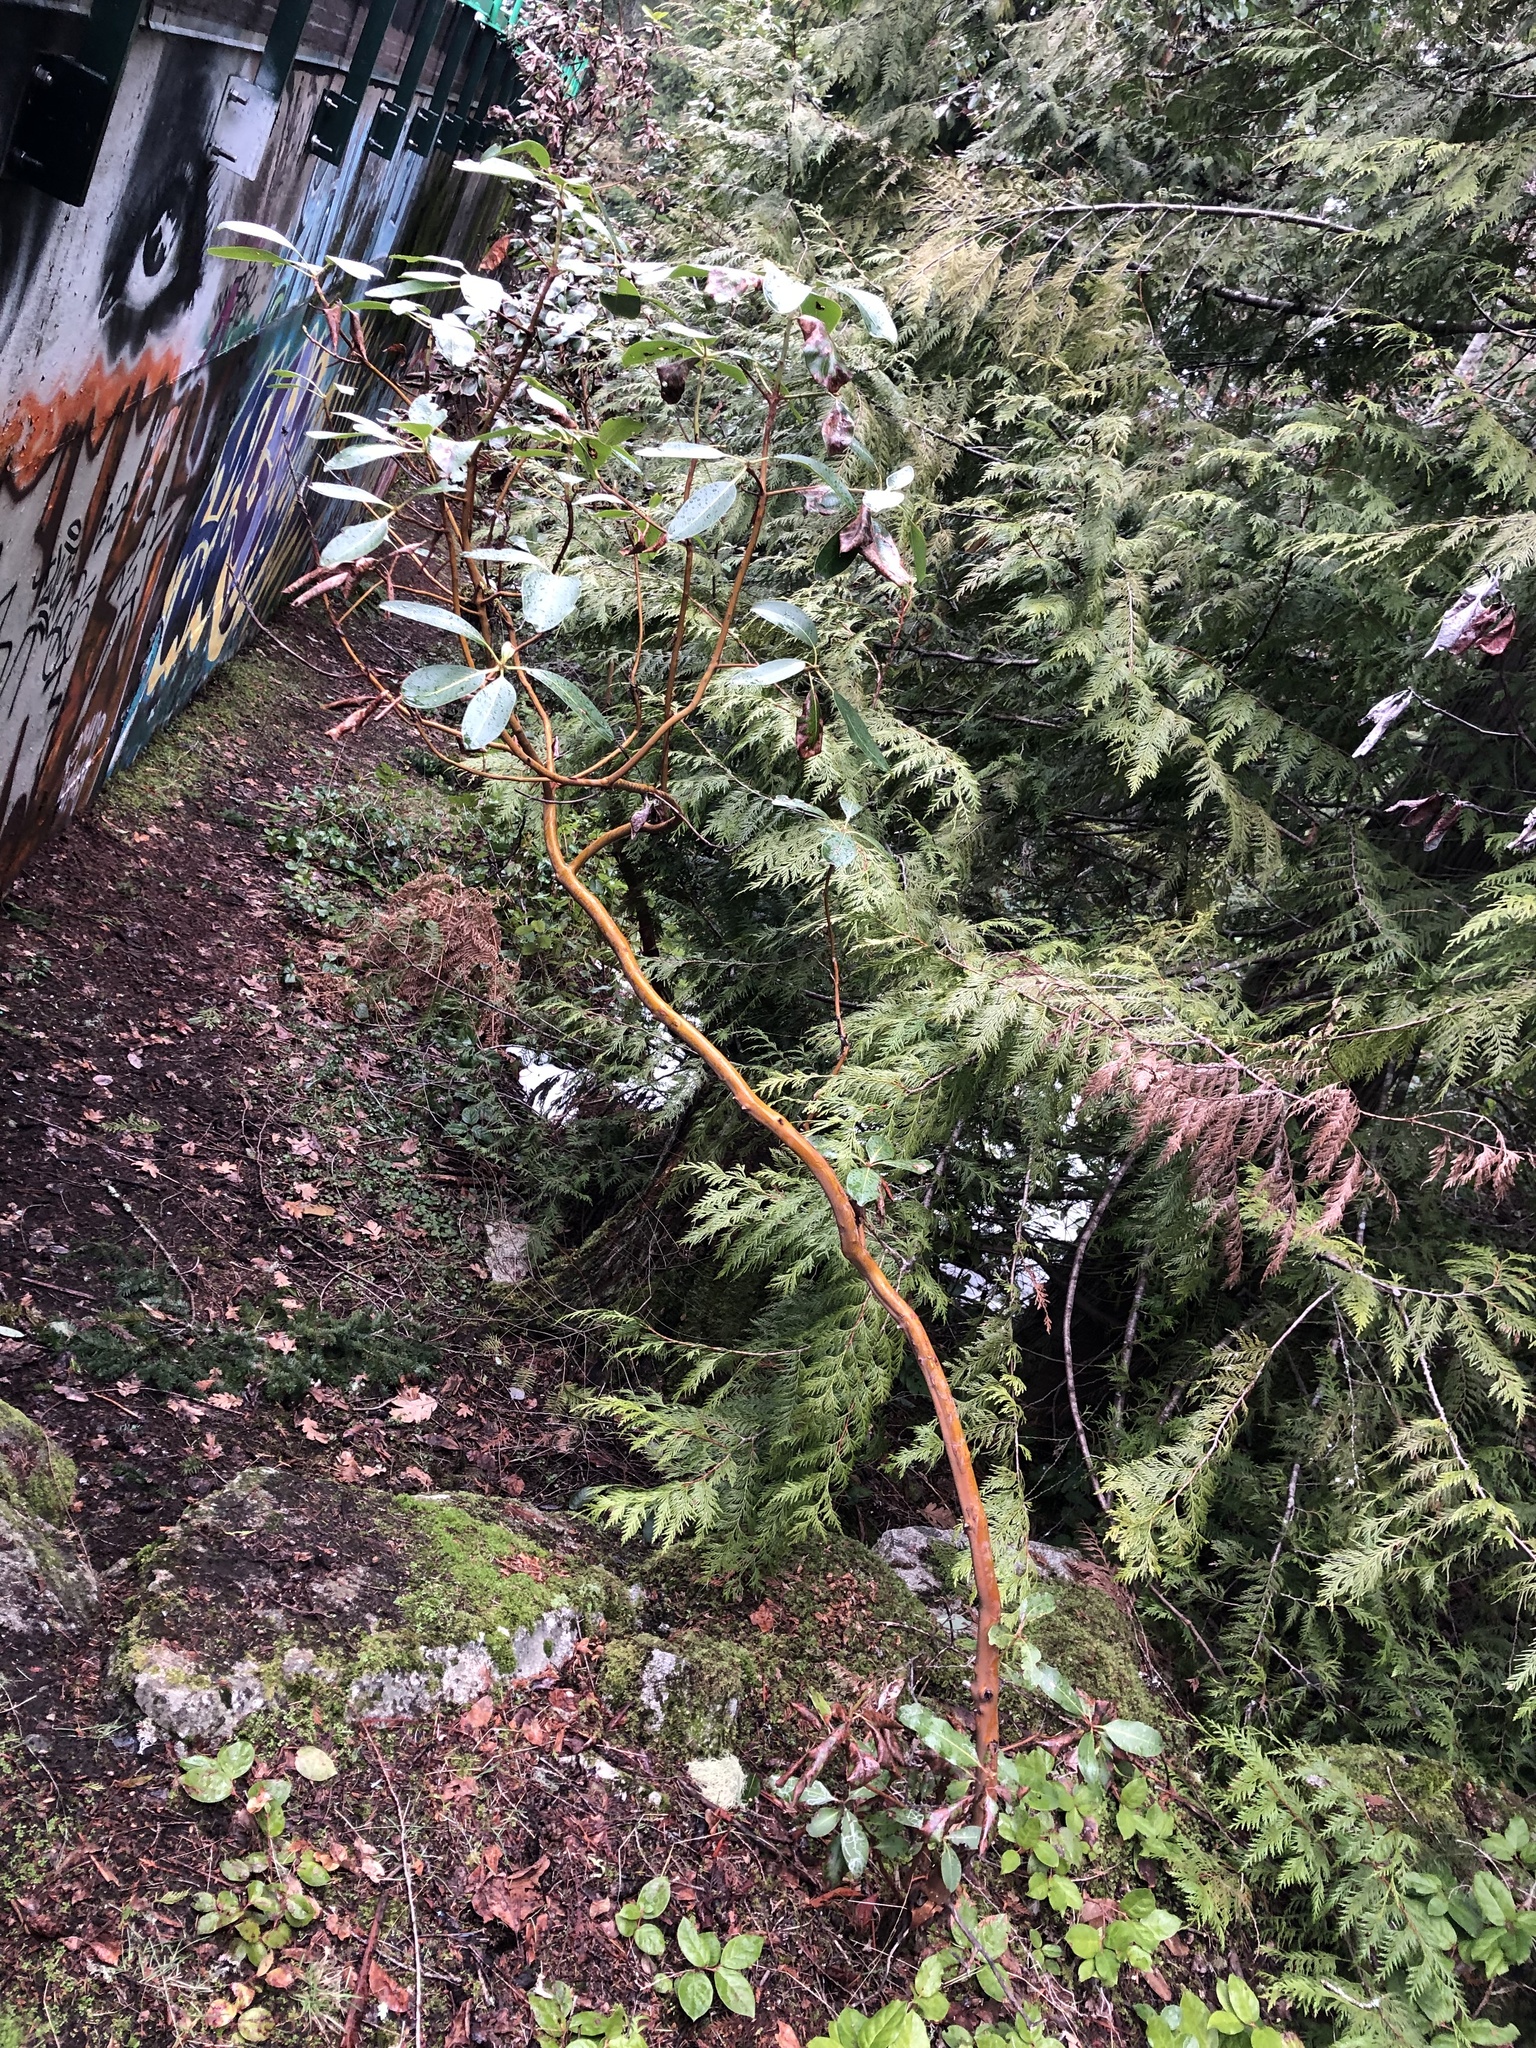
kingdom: Plantae
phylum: Tracheophyta
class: Magnoliopsida
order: Ericales
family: Ericaceae
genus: Arbutus
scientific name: Arbutus menziesii
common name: Pacific madrone
